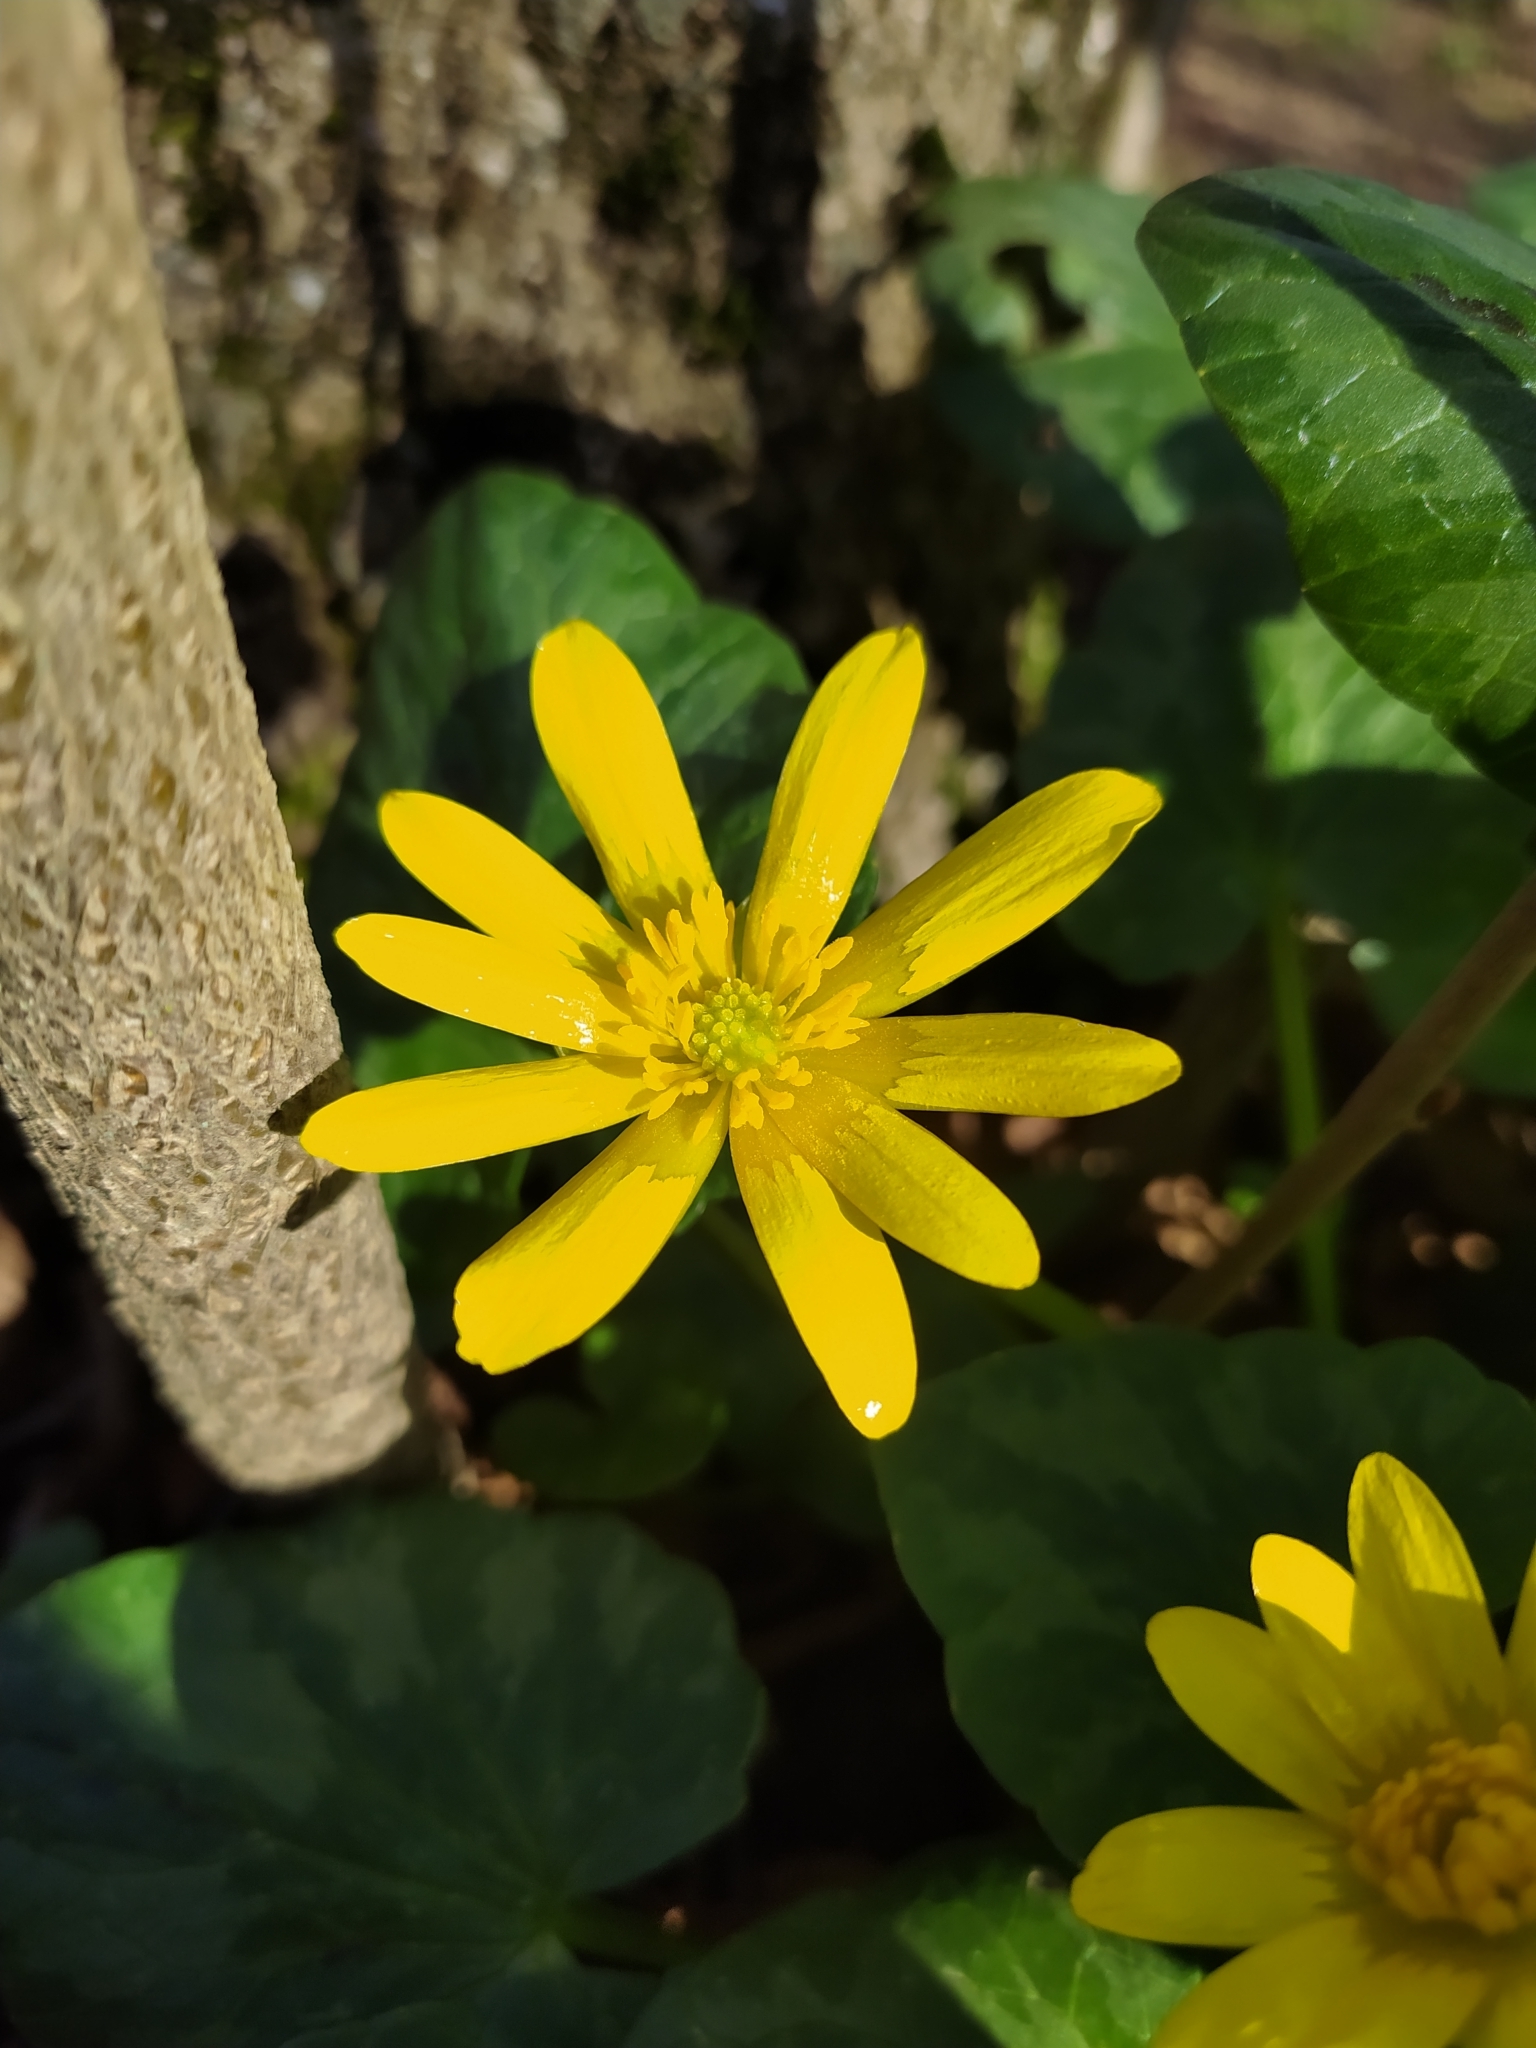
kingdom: Plantae
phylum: Tracheophyta
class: Magnoliopsida
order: Ranunculales
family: Ranunculaceae
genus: Ficaria
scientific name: Ficaria verna
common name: Lesser celandine
